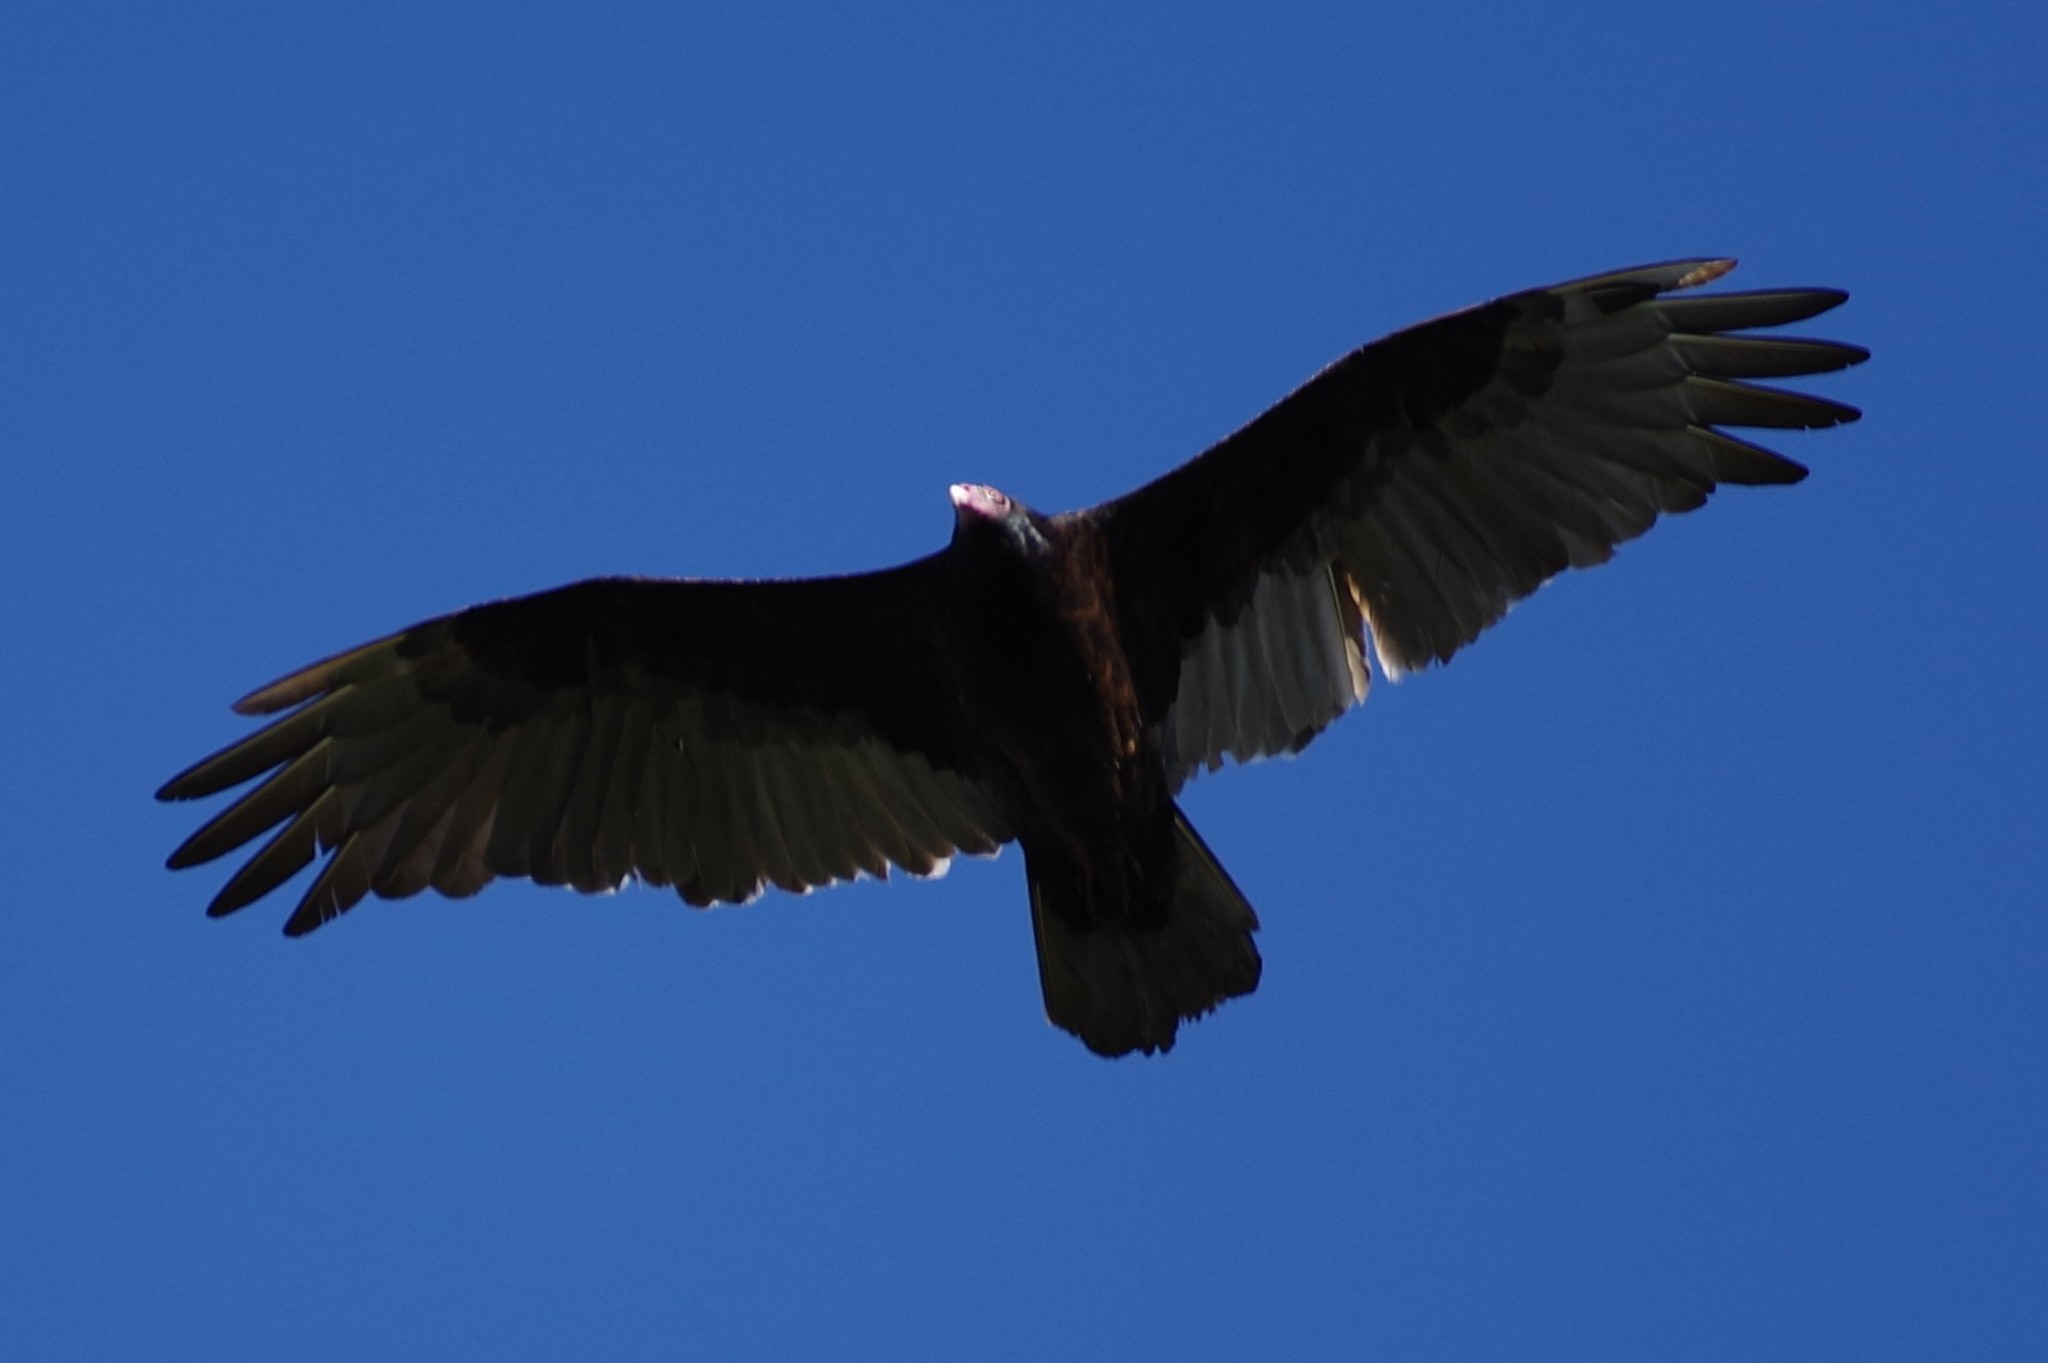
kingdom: Animalia
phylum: Chordata
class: Aves
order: Accipitriformes
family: Cathartidae
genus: Cathartes
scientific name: Cathartes aura
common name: Turkey vulture
